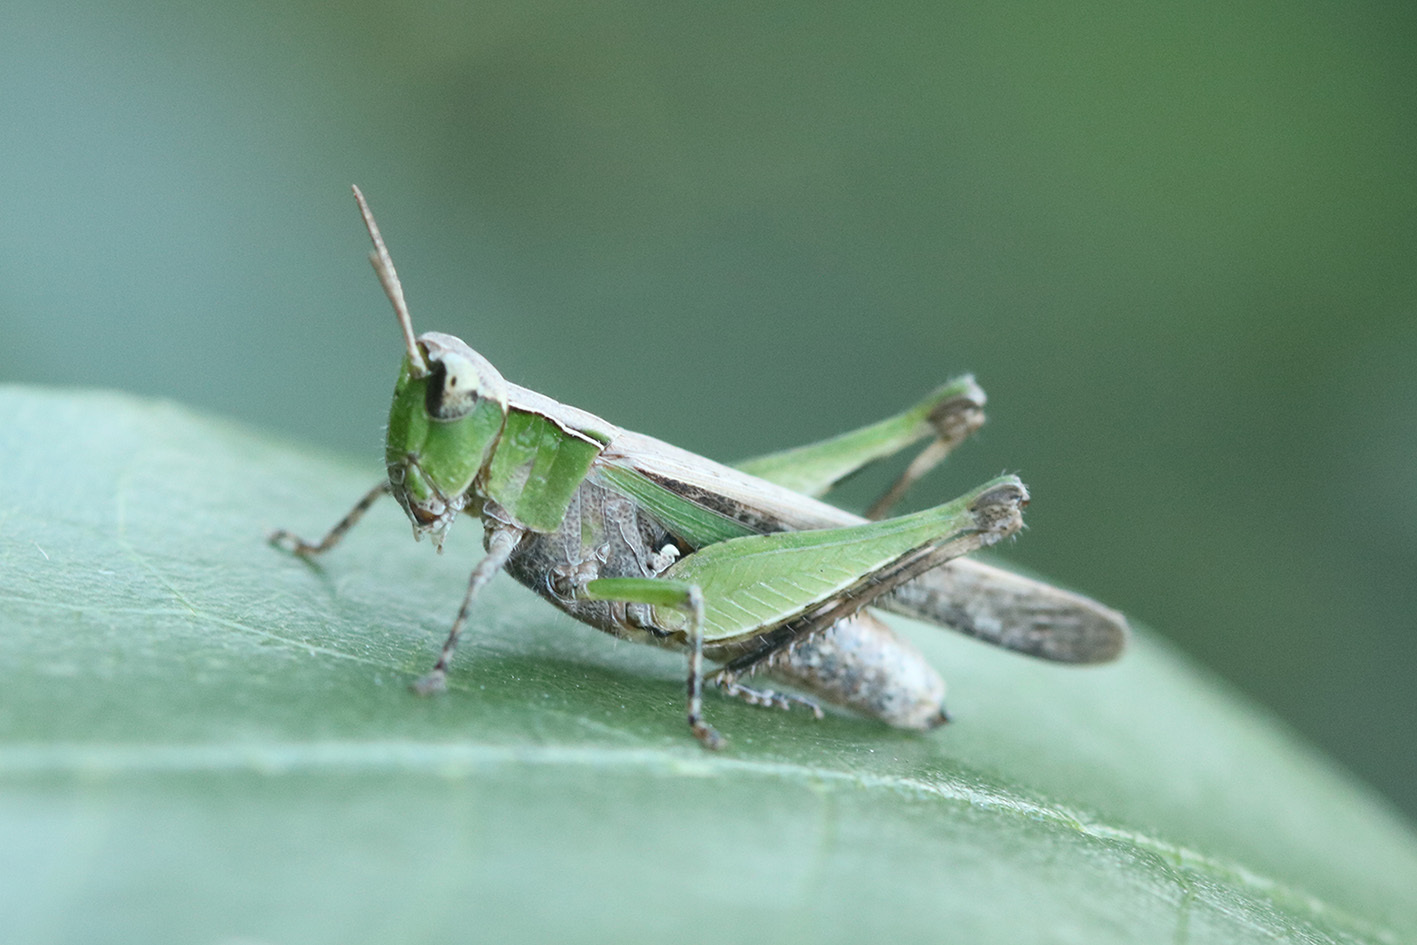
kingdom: Animalia
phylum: Arthropoda
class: Insecta
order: Orthoptera
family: Acrididae
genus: Orphulella
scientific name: Orphulella punctata
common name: Slant-faced grasshopper
